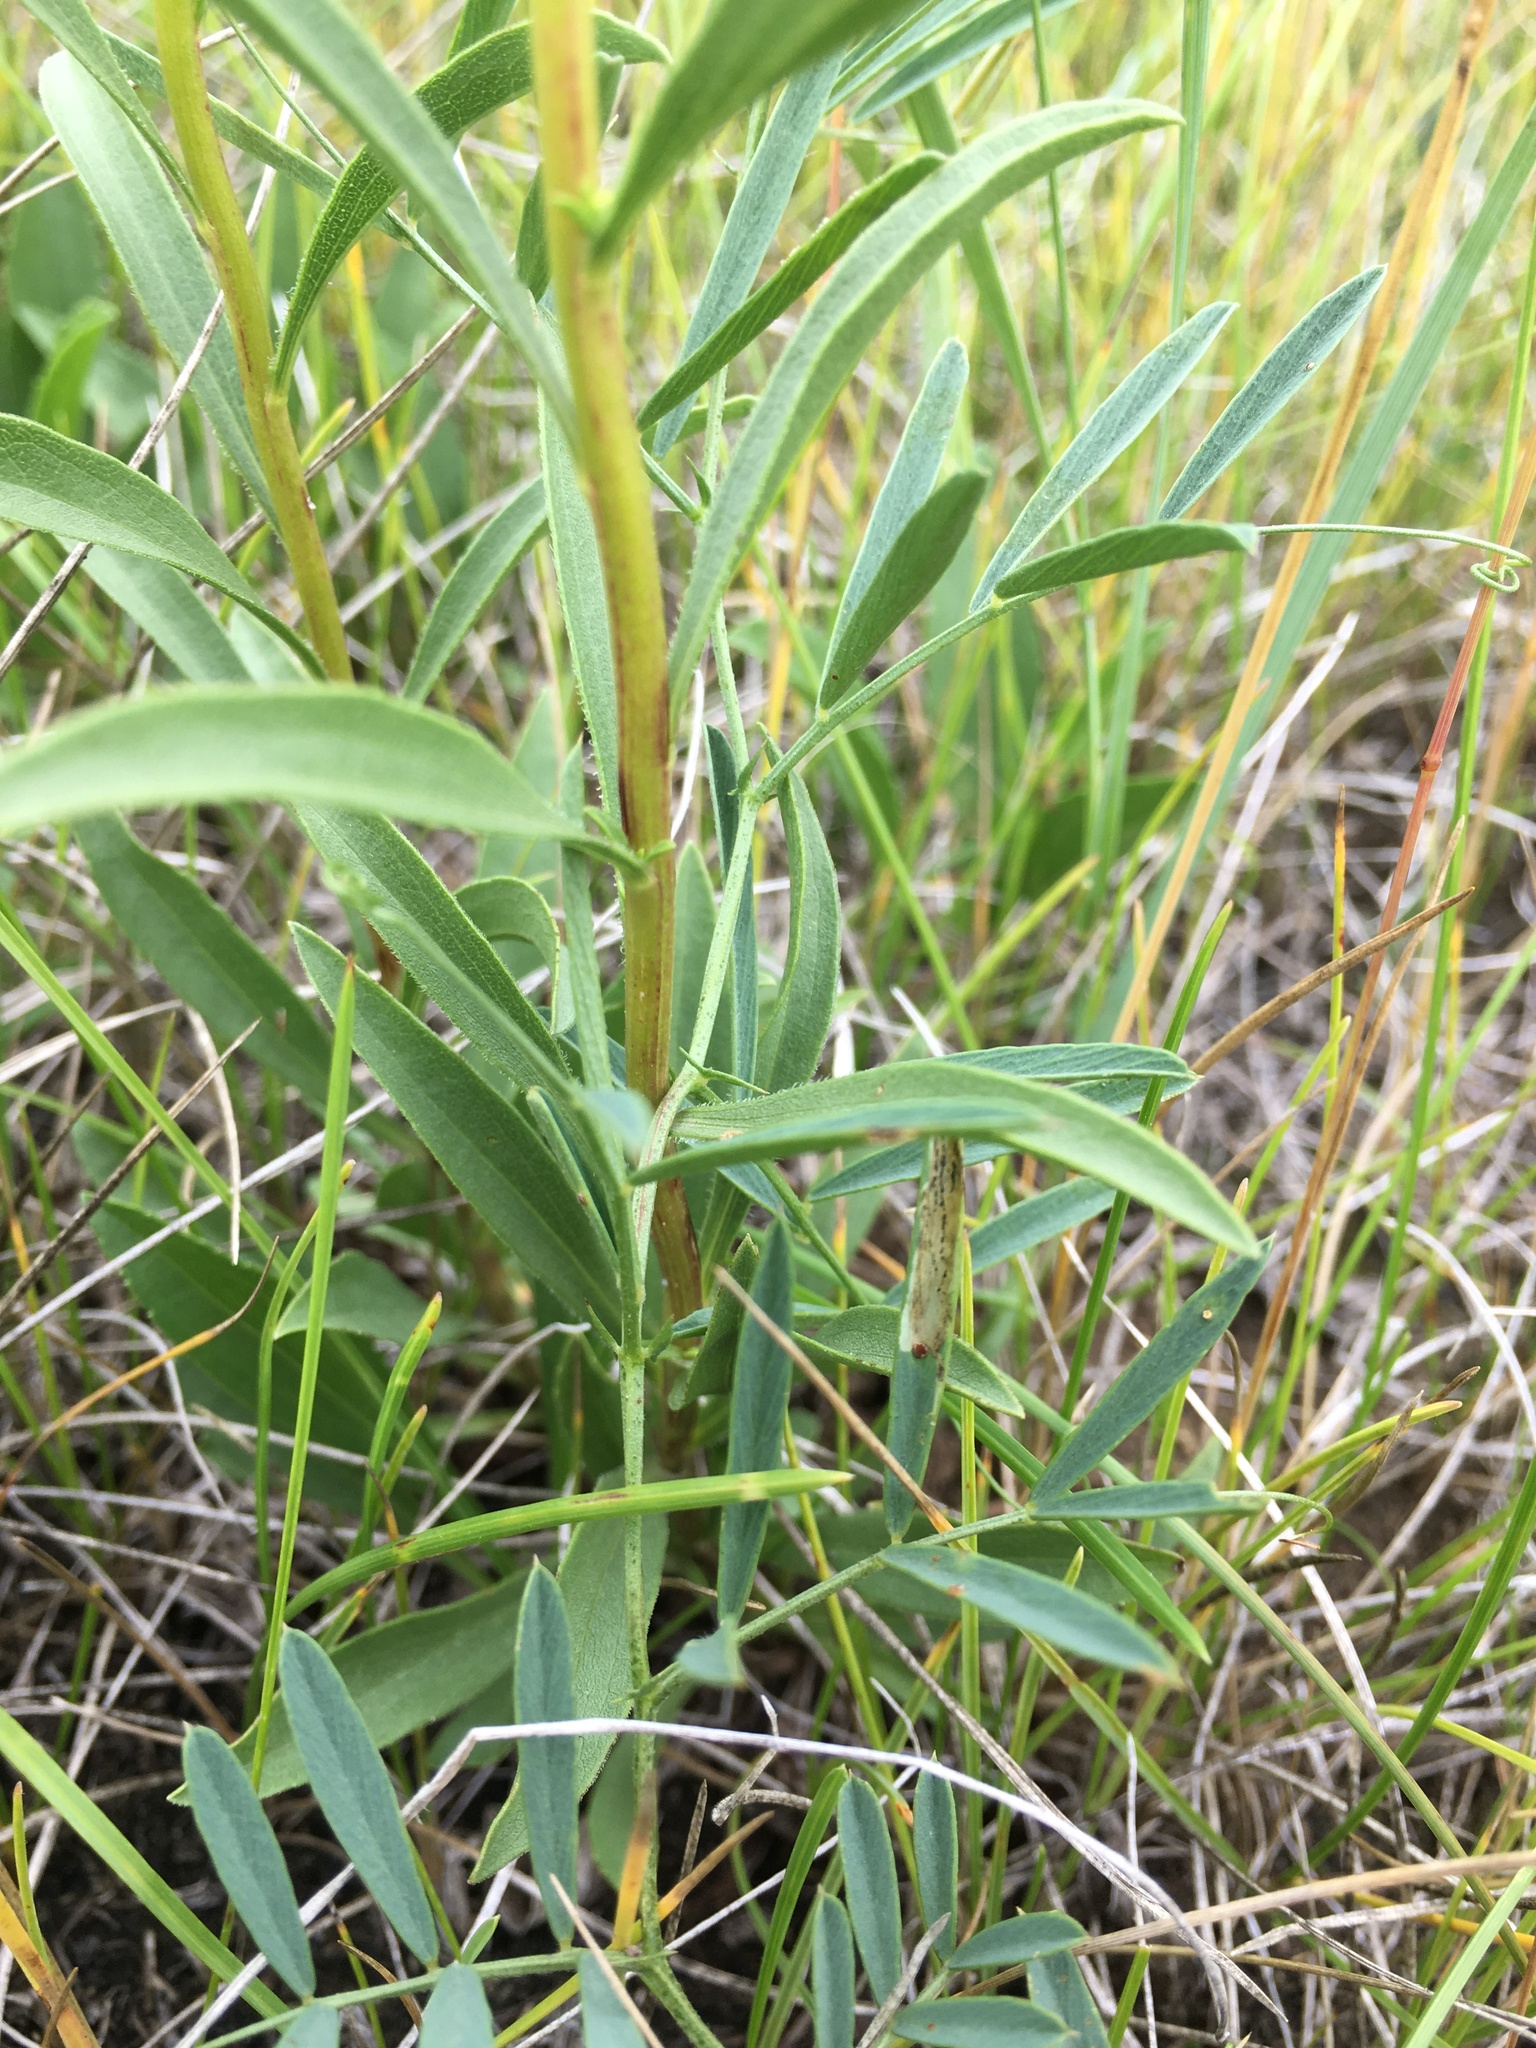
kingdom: Plantae
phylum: Tracheophyta
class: Magnoliopsida
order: Asterales
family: Asteraceae
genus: Solidago
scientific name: Solidago missouriensis
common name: Prairie goldenrod
